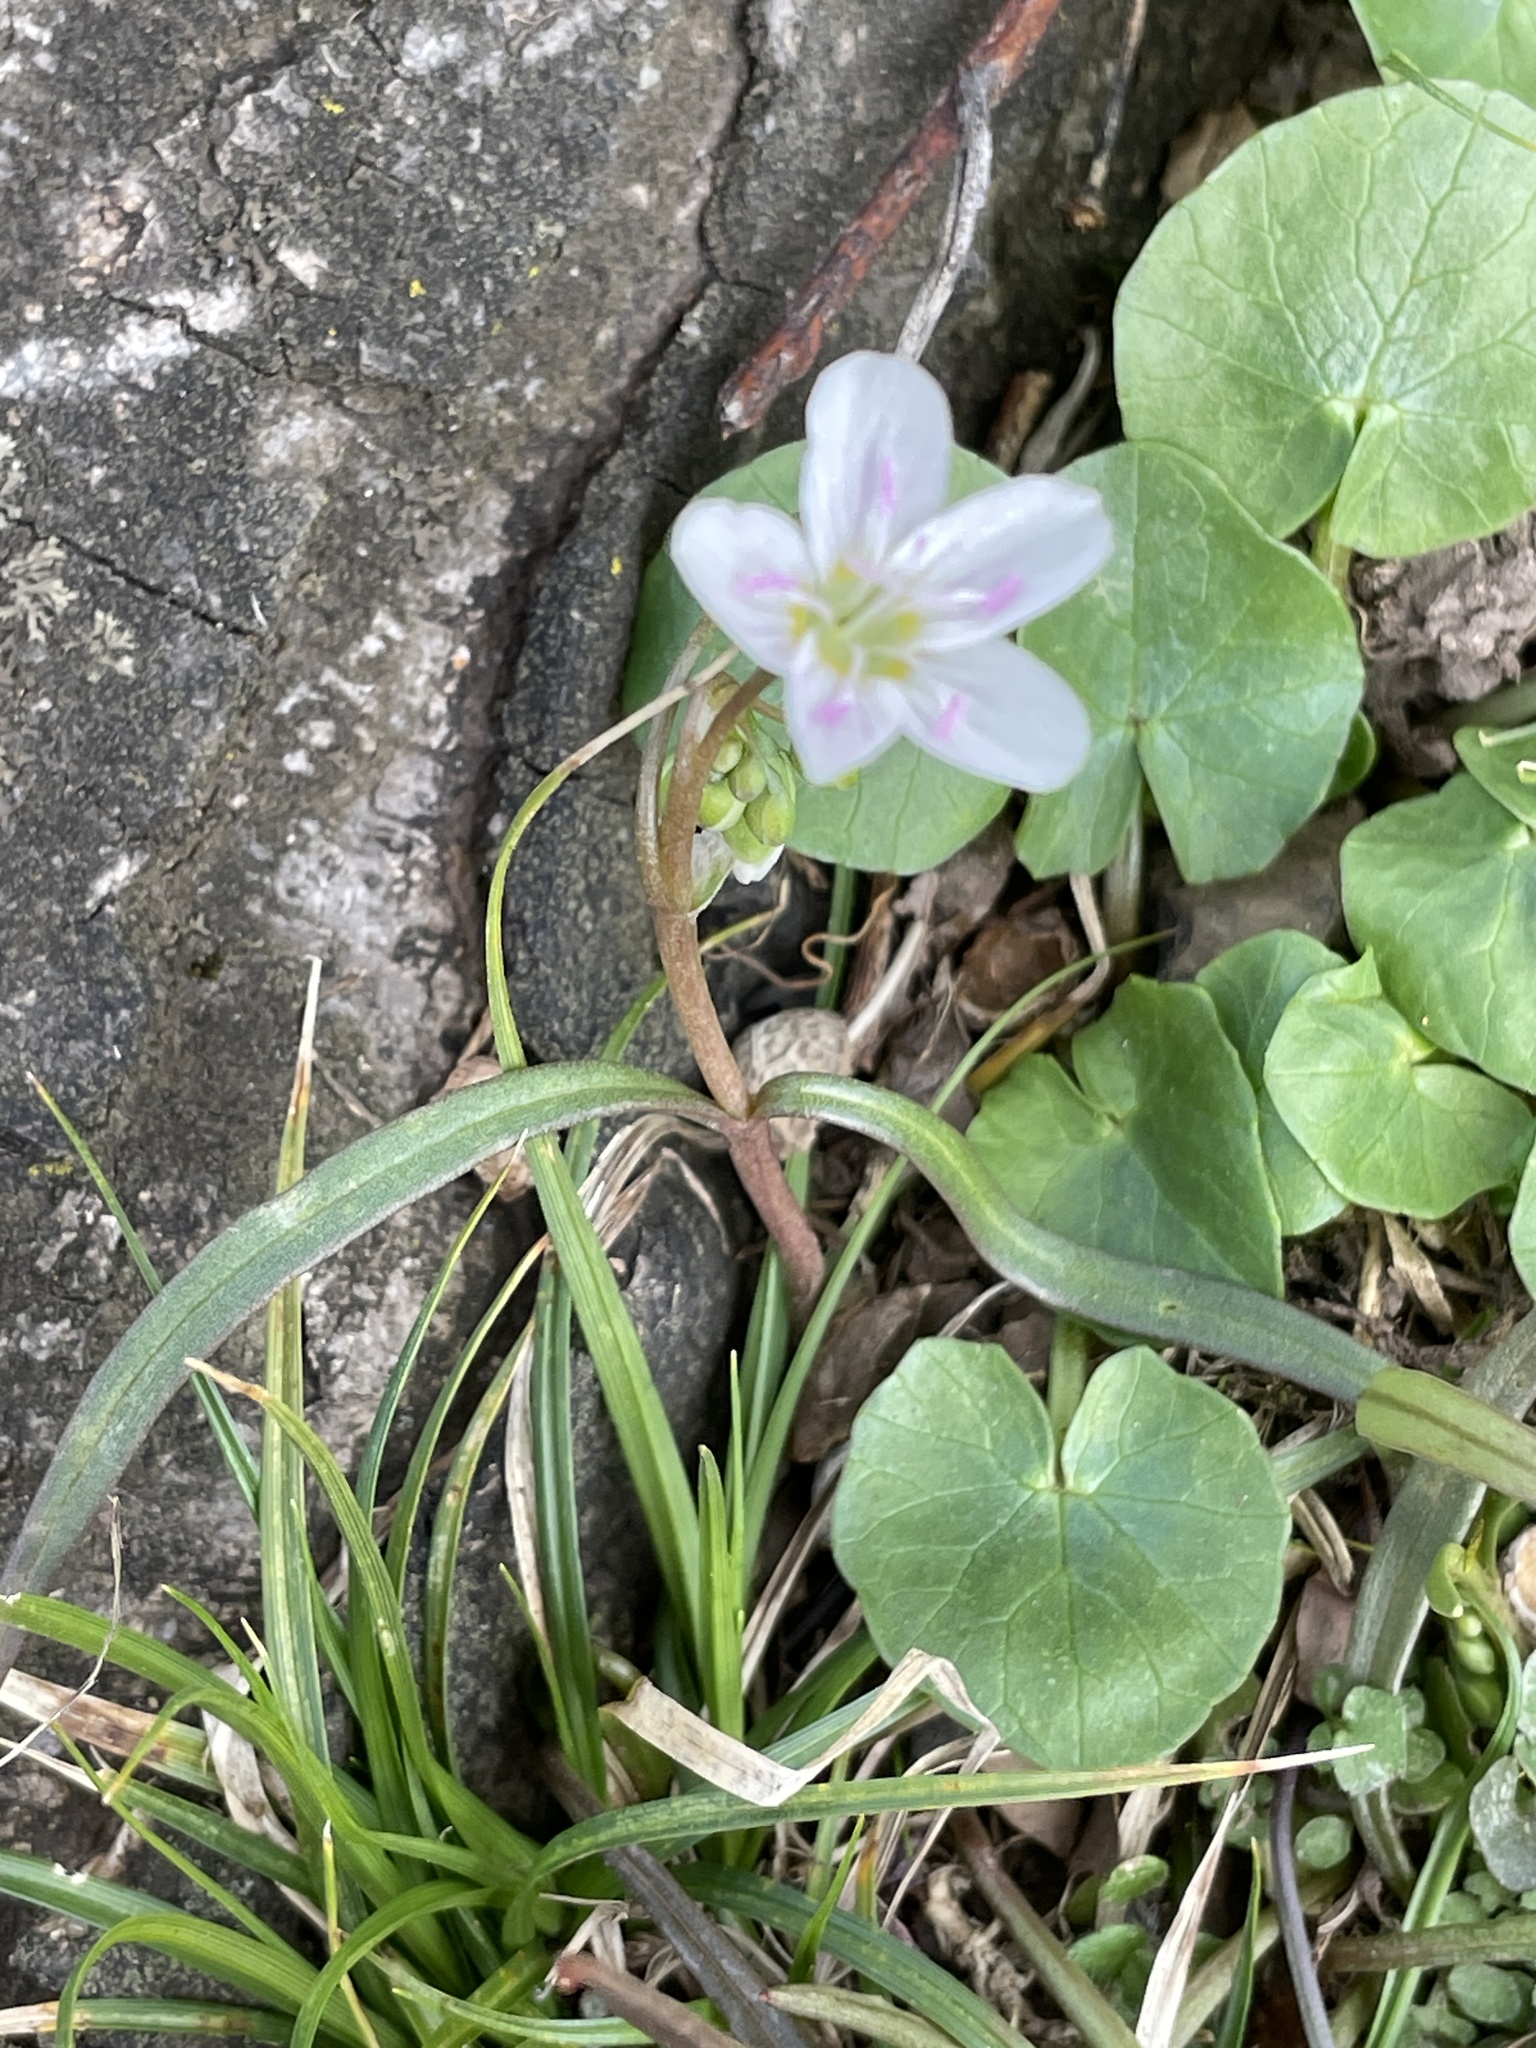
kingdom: Plantae
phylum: Tracheophyta
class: Magnoliopsida
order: Caryophyllales
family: Montiaceae
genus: Claytonia
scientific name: Claytonia virginica
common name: Virginia springbeauty
